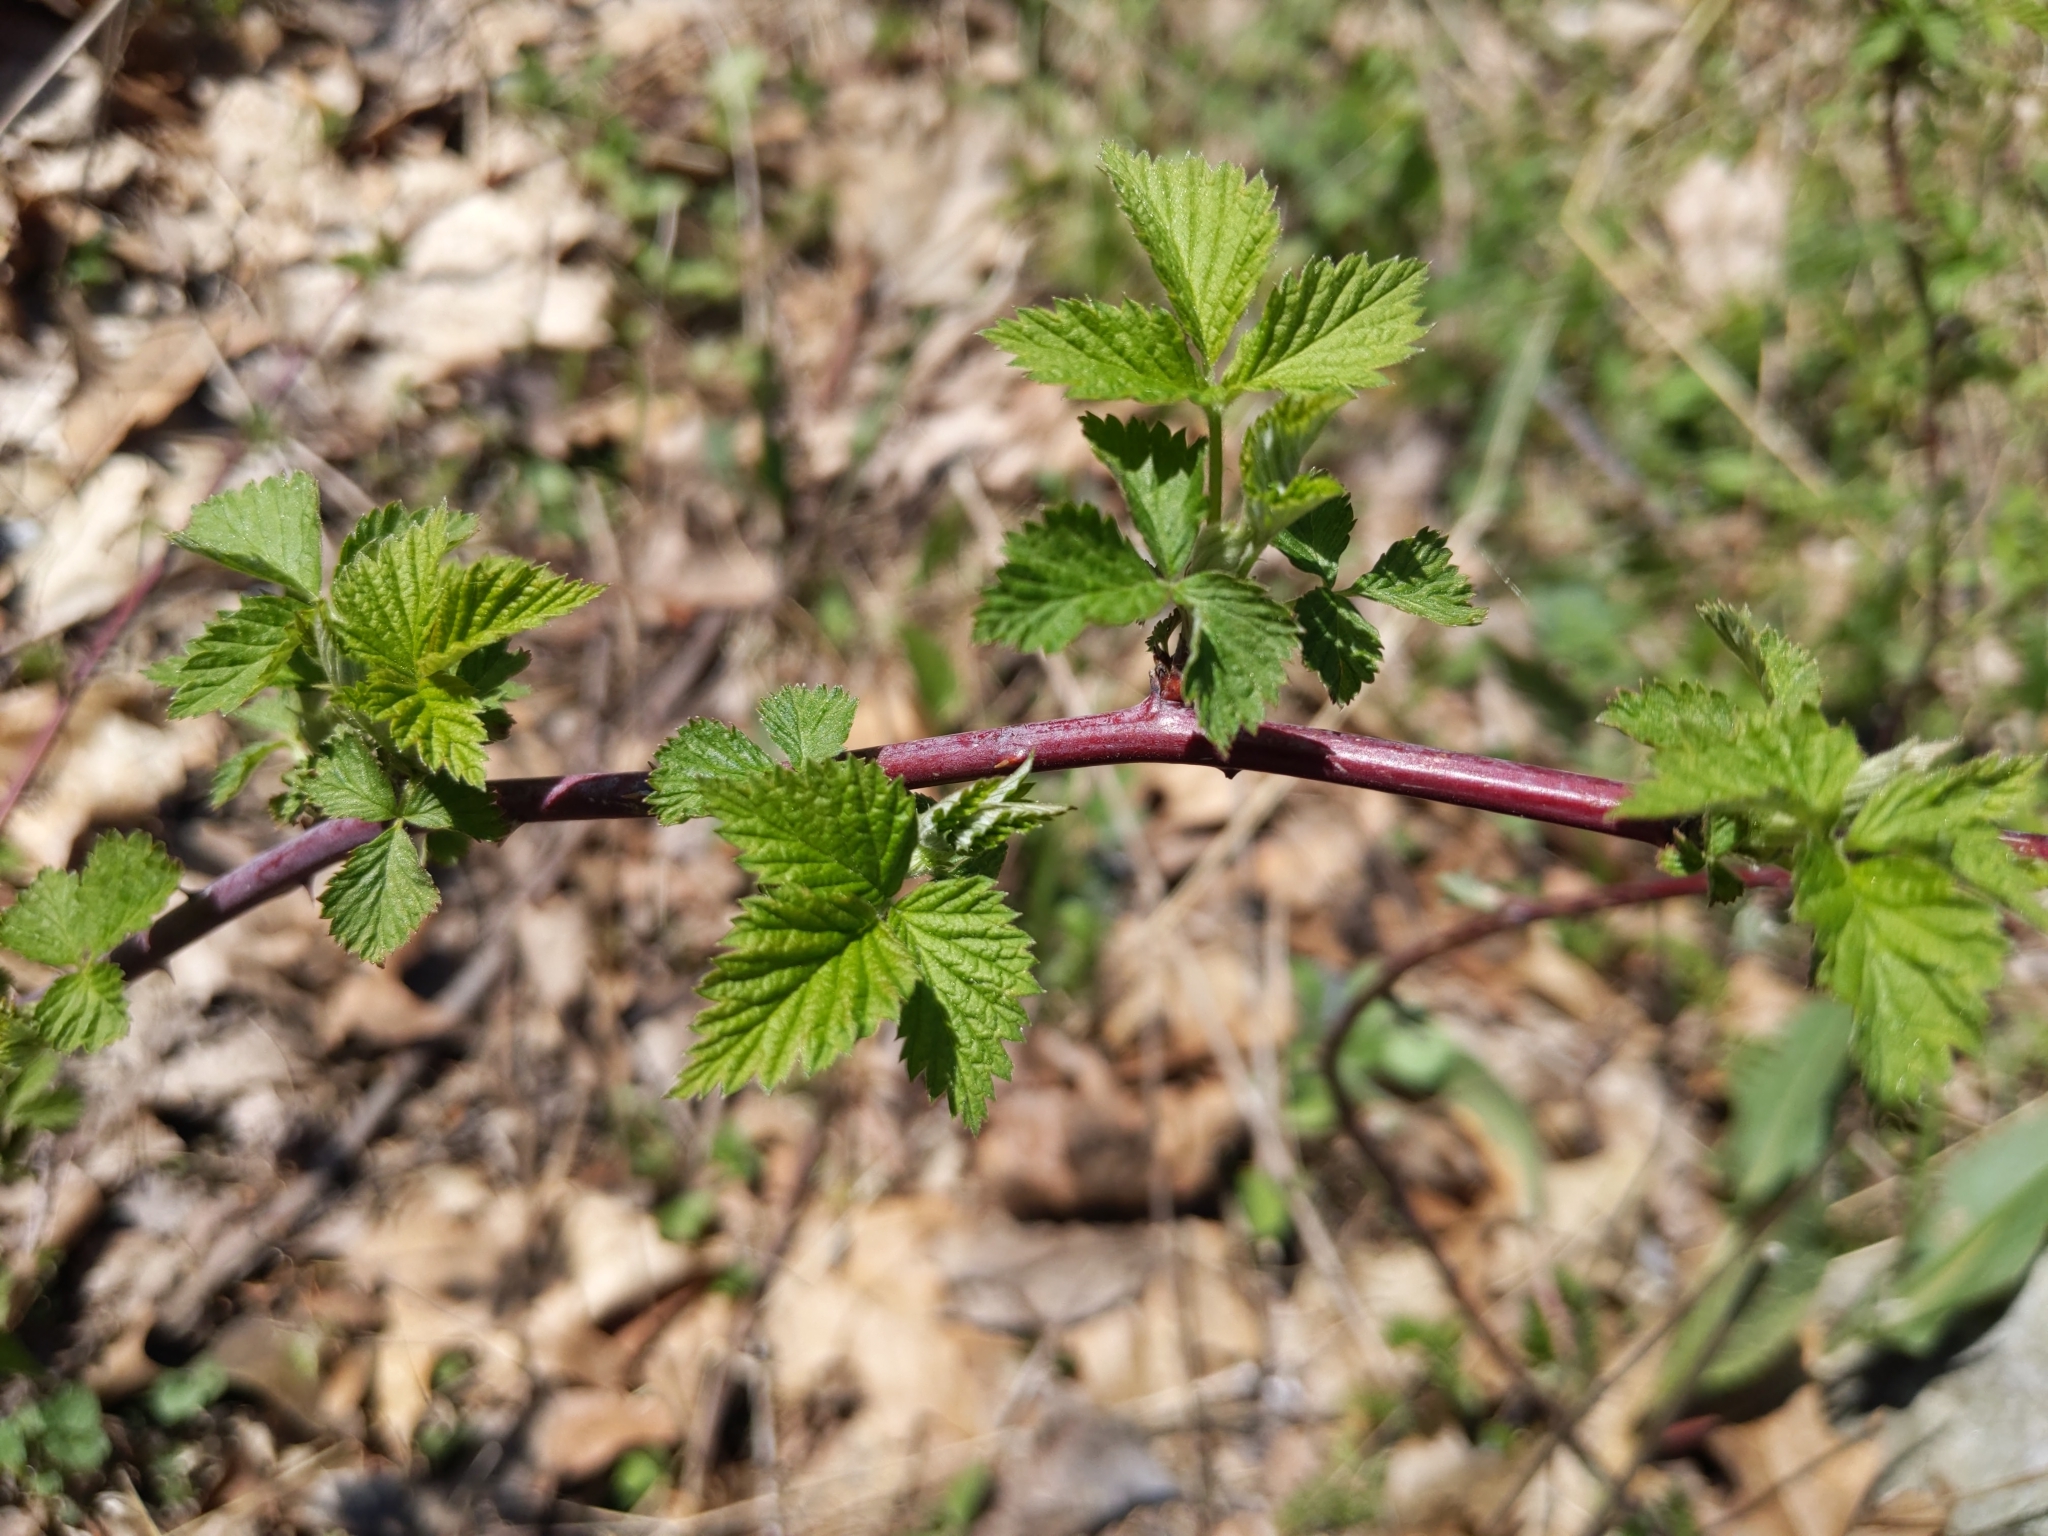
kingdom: Plantae
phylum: Tracheophyta
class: Magnoliopsida
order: Rosales
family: Rosaceae
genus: Rubus
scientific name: Rubus occidentalis
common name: Black raspberry
